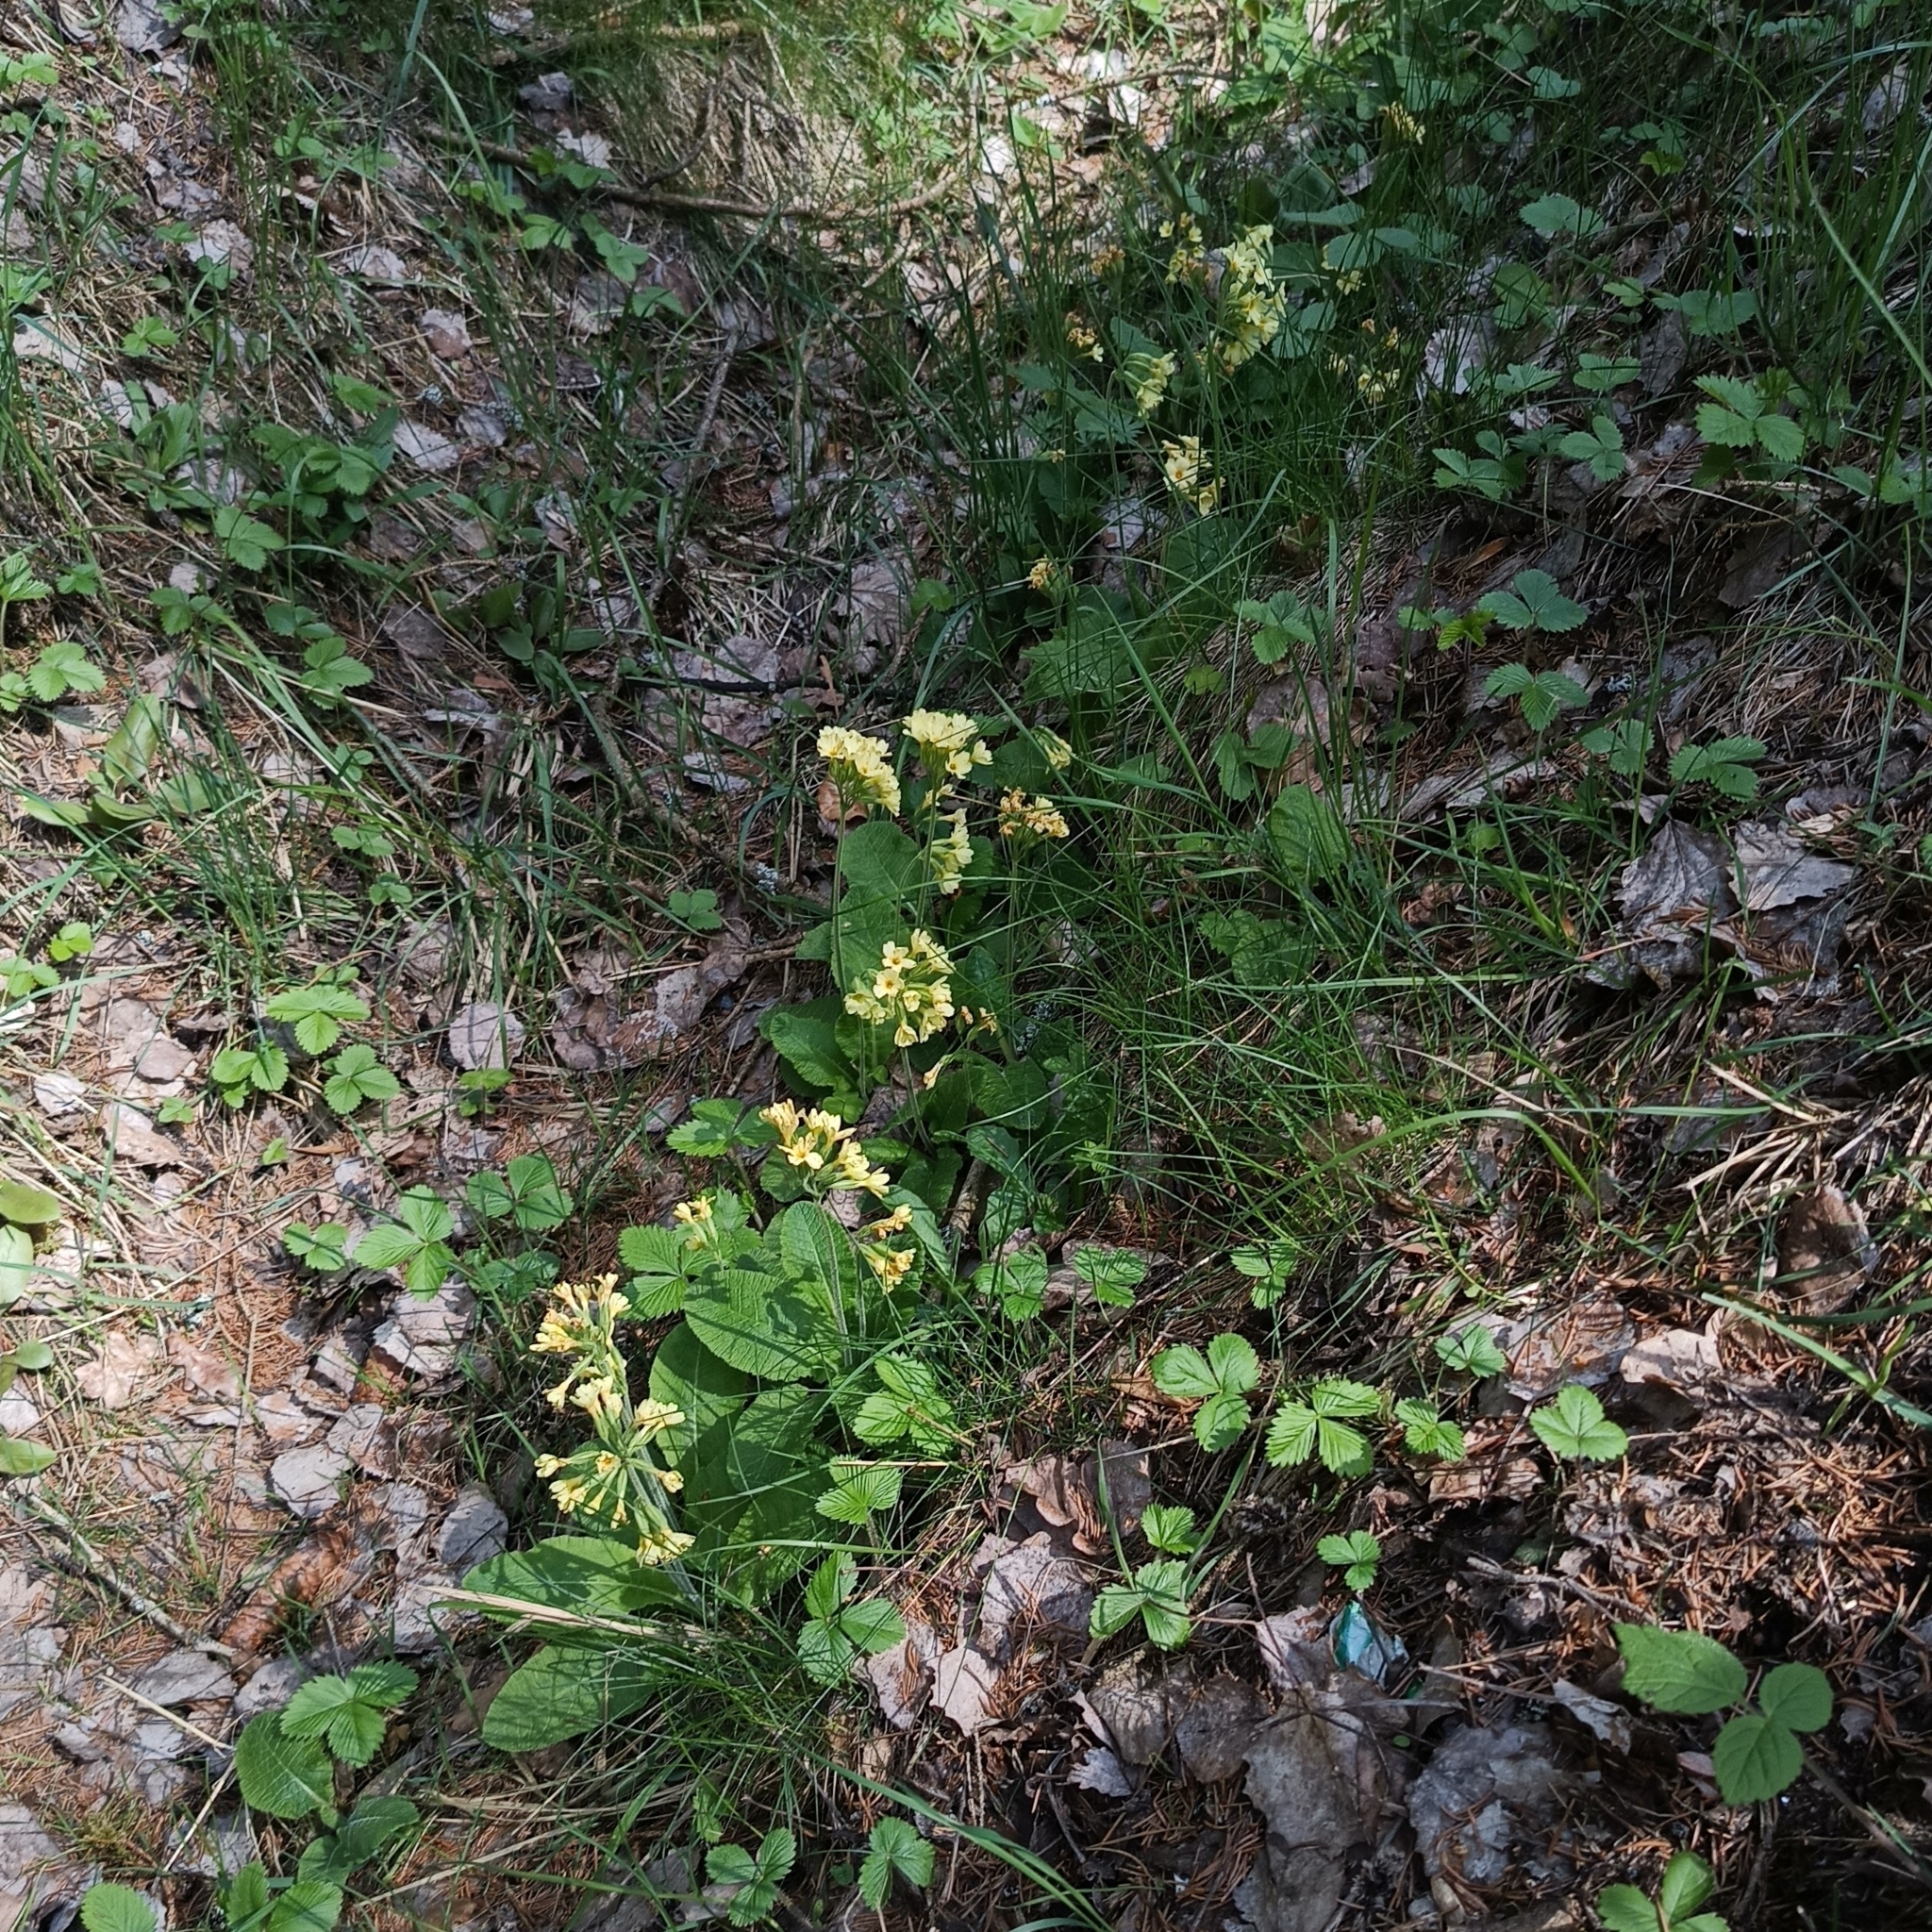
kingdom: Plantae
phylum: Tracheophyta
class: Magnoliopsida
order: Ericales
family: Primulaceae
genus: Primula
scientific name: Primula elatior
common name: Oxlip
